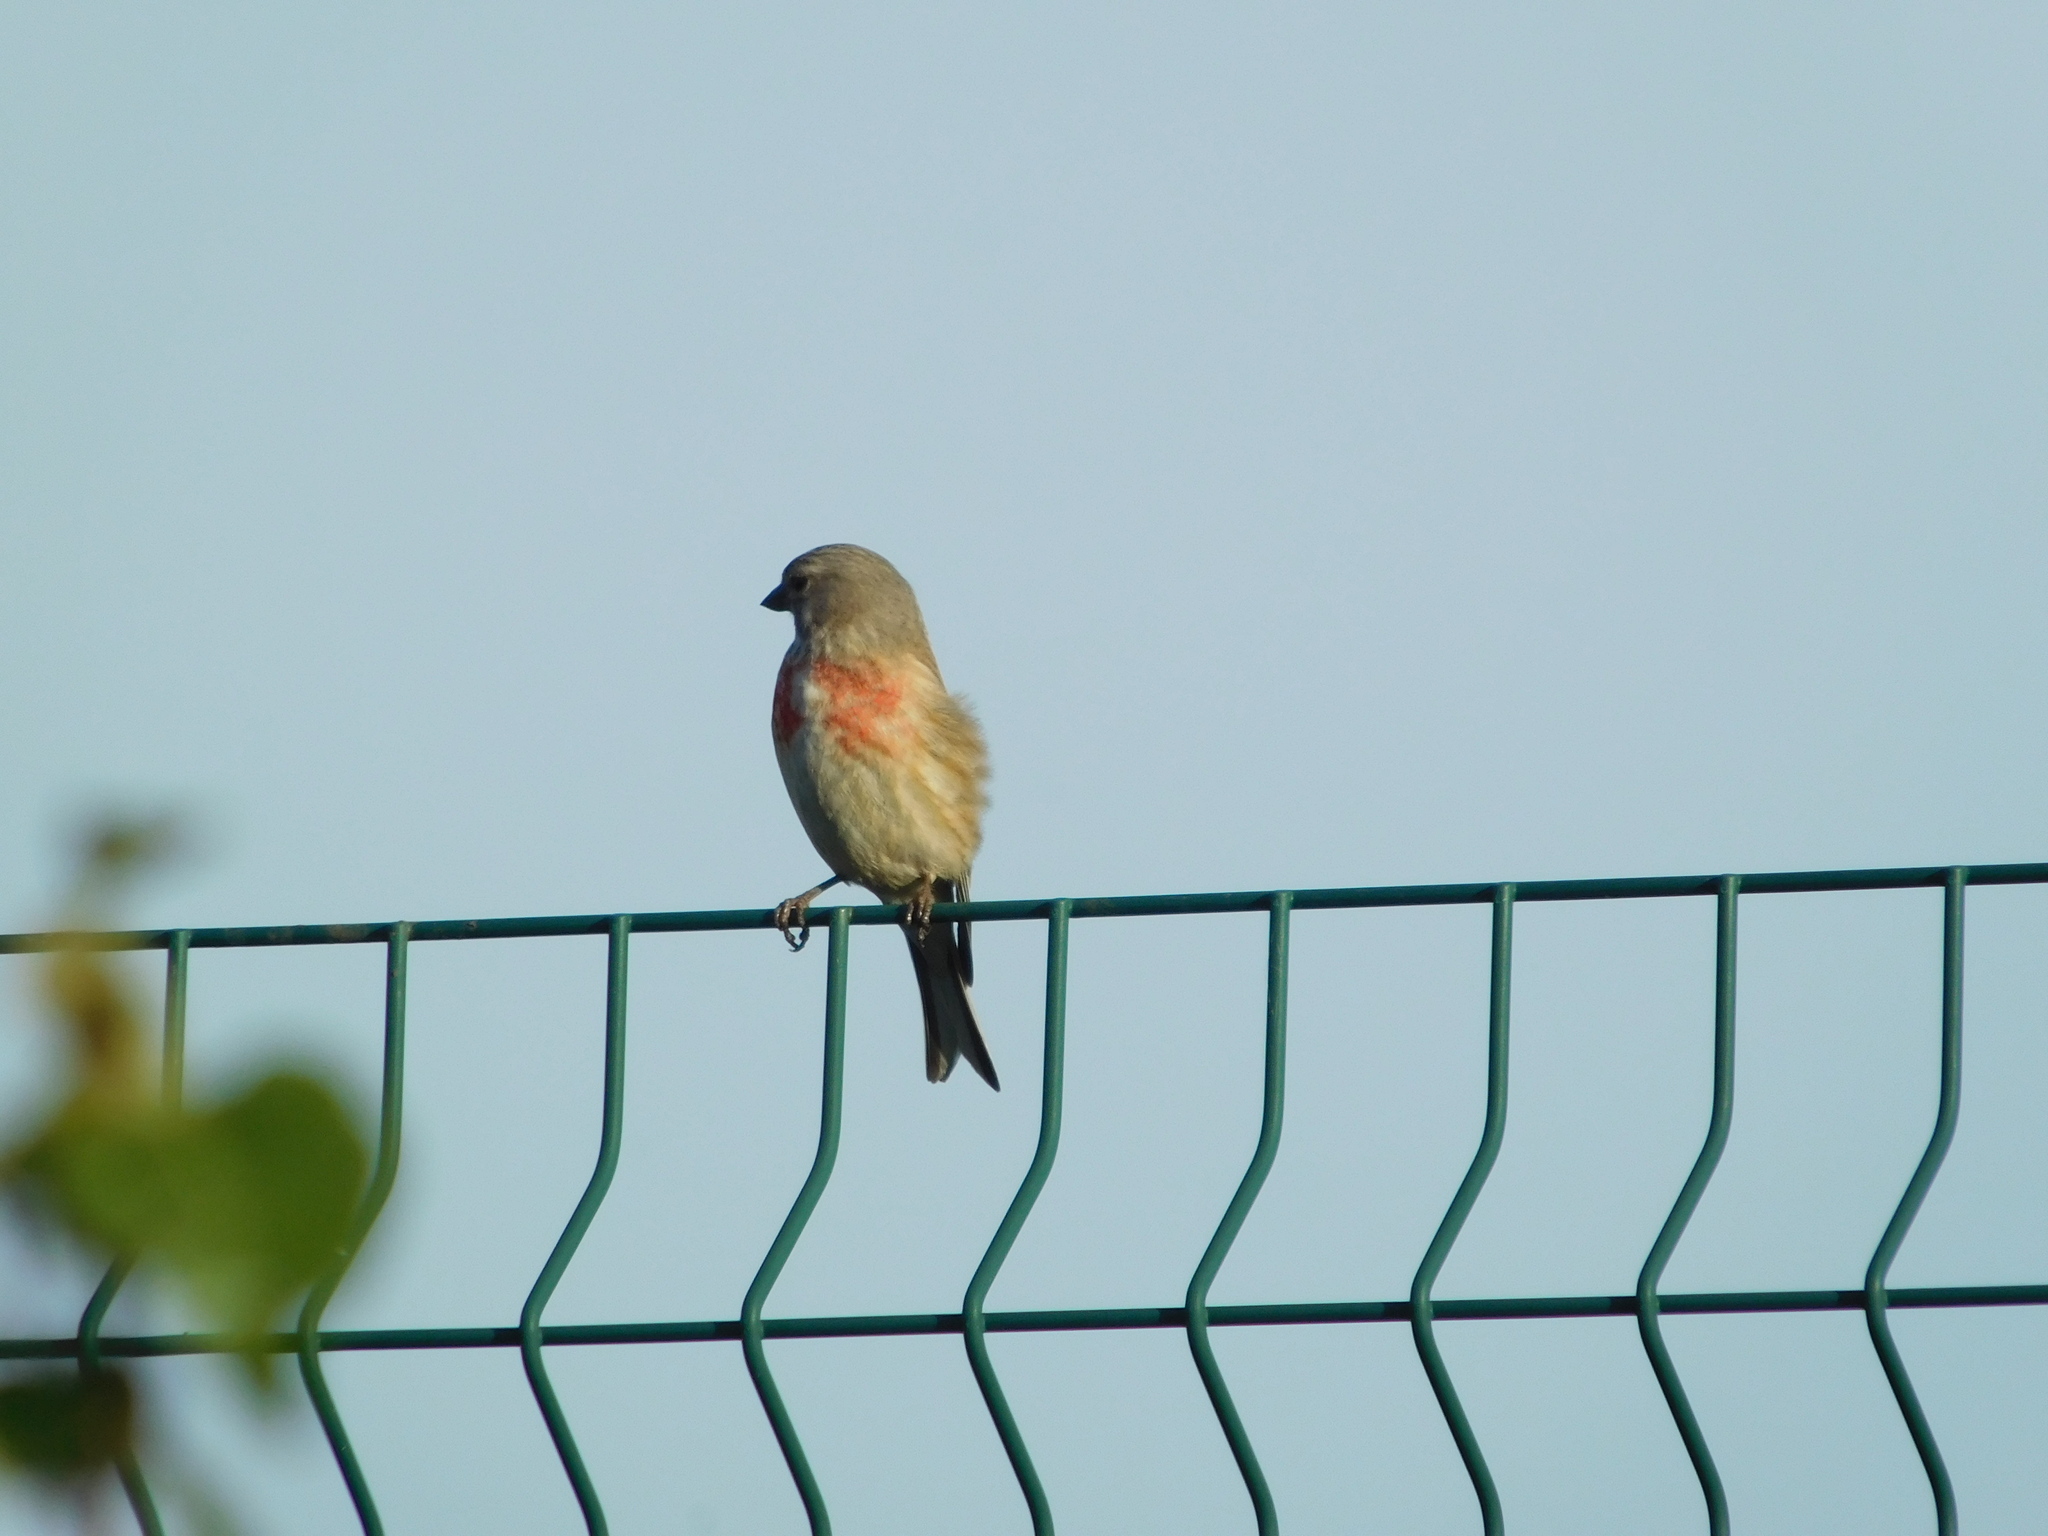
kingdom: Animalia
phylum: Chordata
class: Aves
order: Passeriformes
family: Fringillidae
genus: Linaria
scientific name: Linaria cannabina
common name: Common linnet
